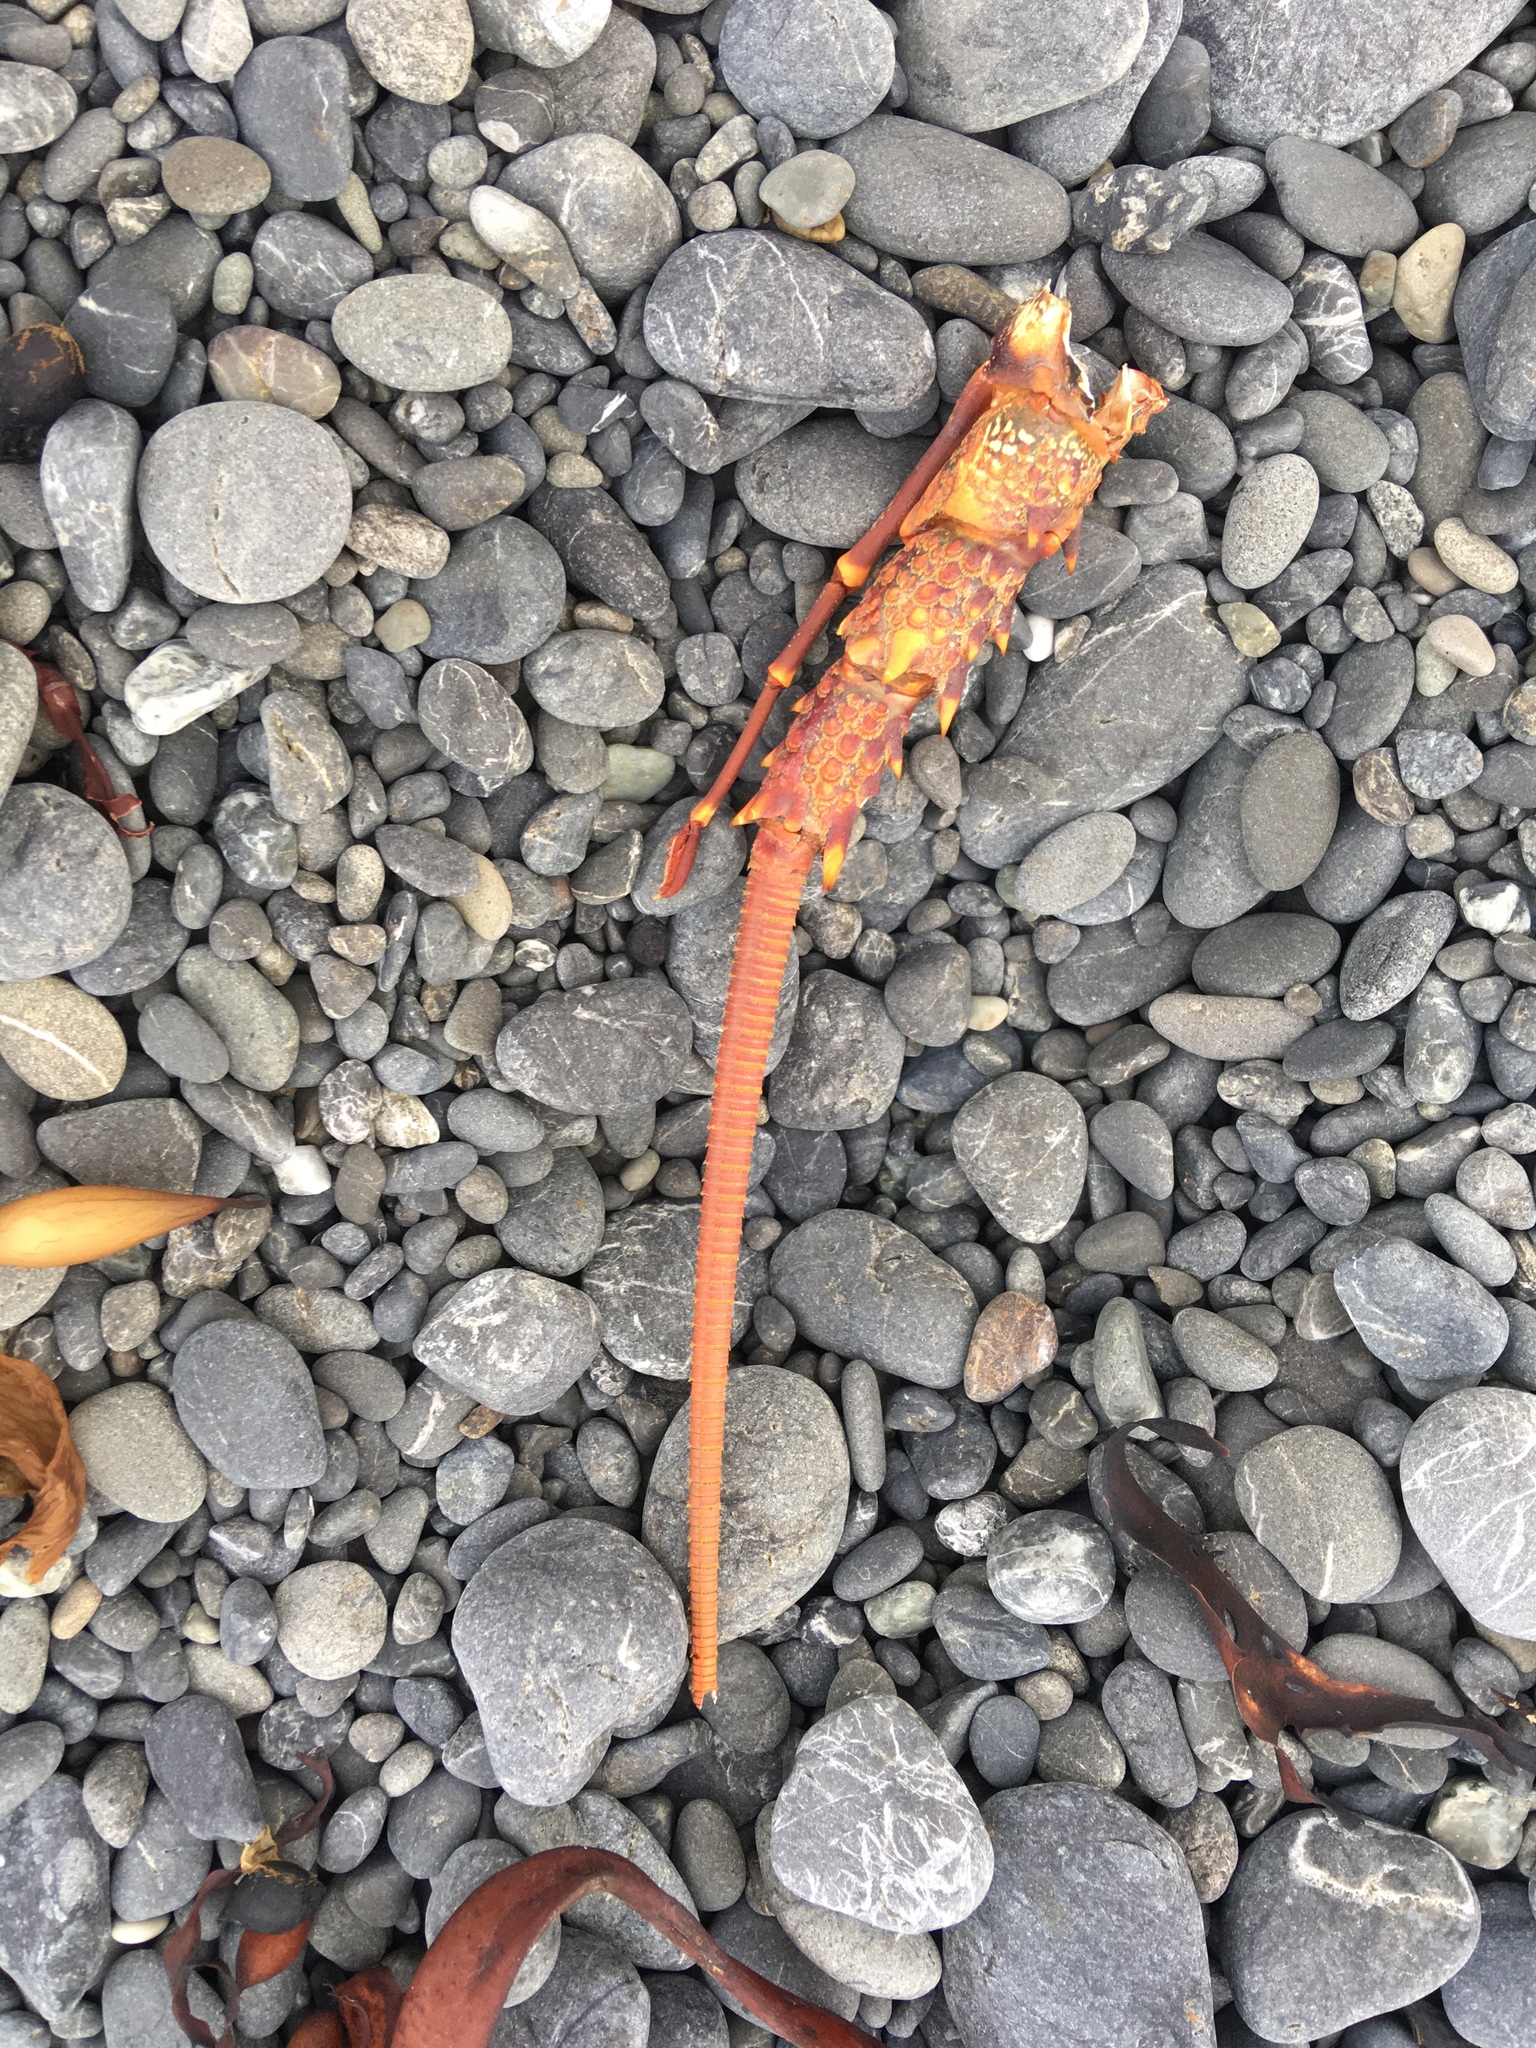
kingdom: Animalia
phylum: Arthropoda
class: Malacostraca
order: Decapoda
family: Palinuridae
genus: Jasus
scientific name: Jasus edwardsii
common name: Red rock lobster
